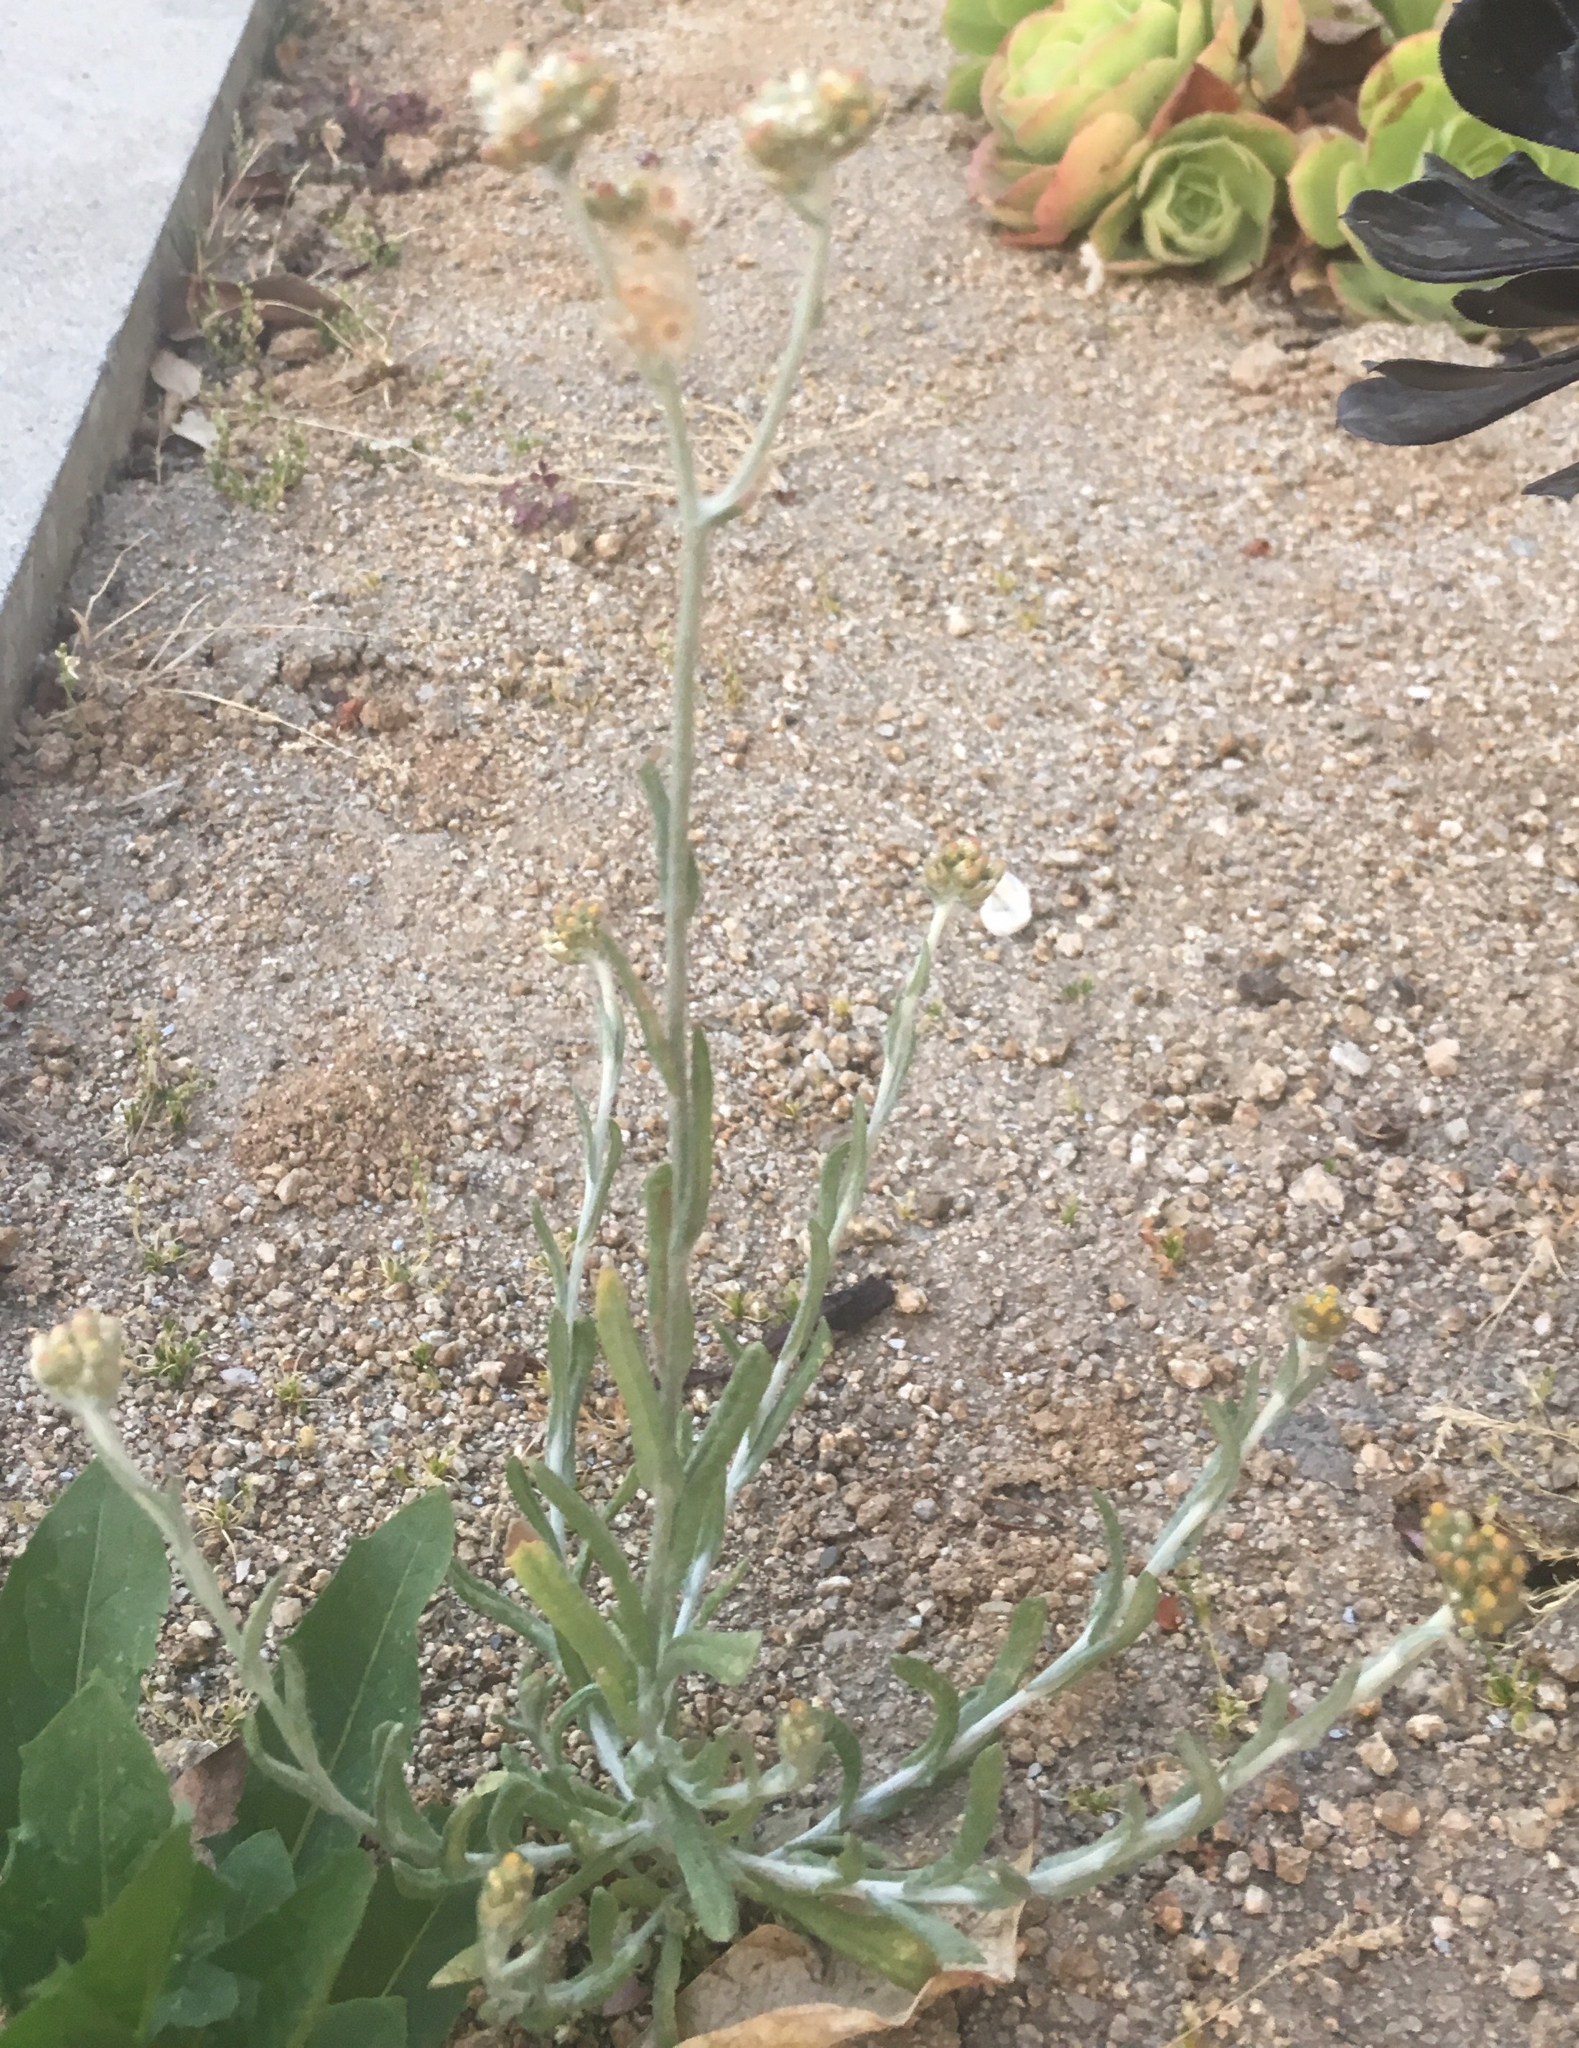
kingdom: Plantae
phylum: Tracheophyta
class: Magnoliopsida
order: Asterales
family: Asteraceae
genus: Helichrysum
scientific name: Helichrysum luteoalbum
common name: Daisy
